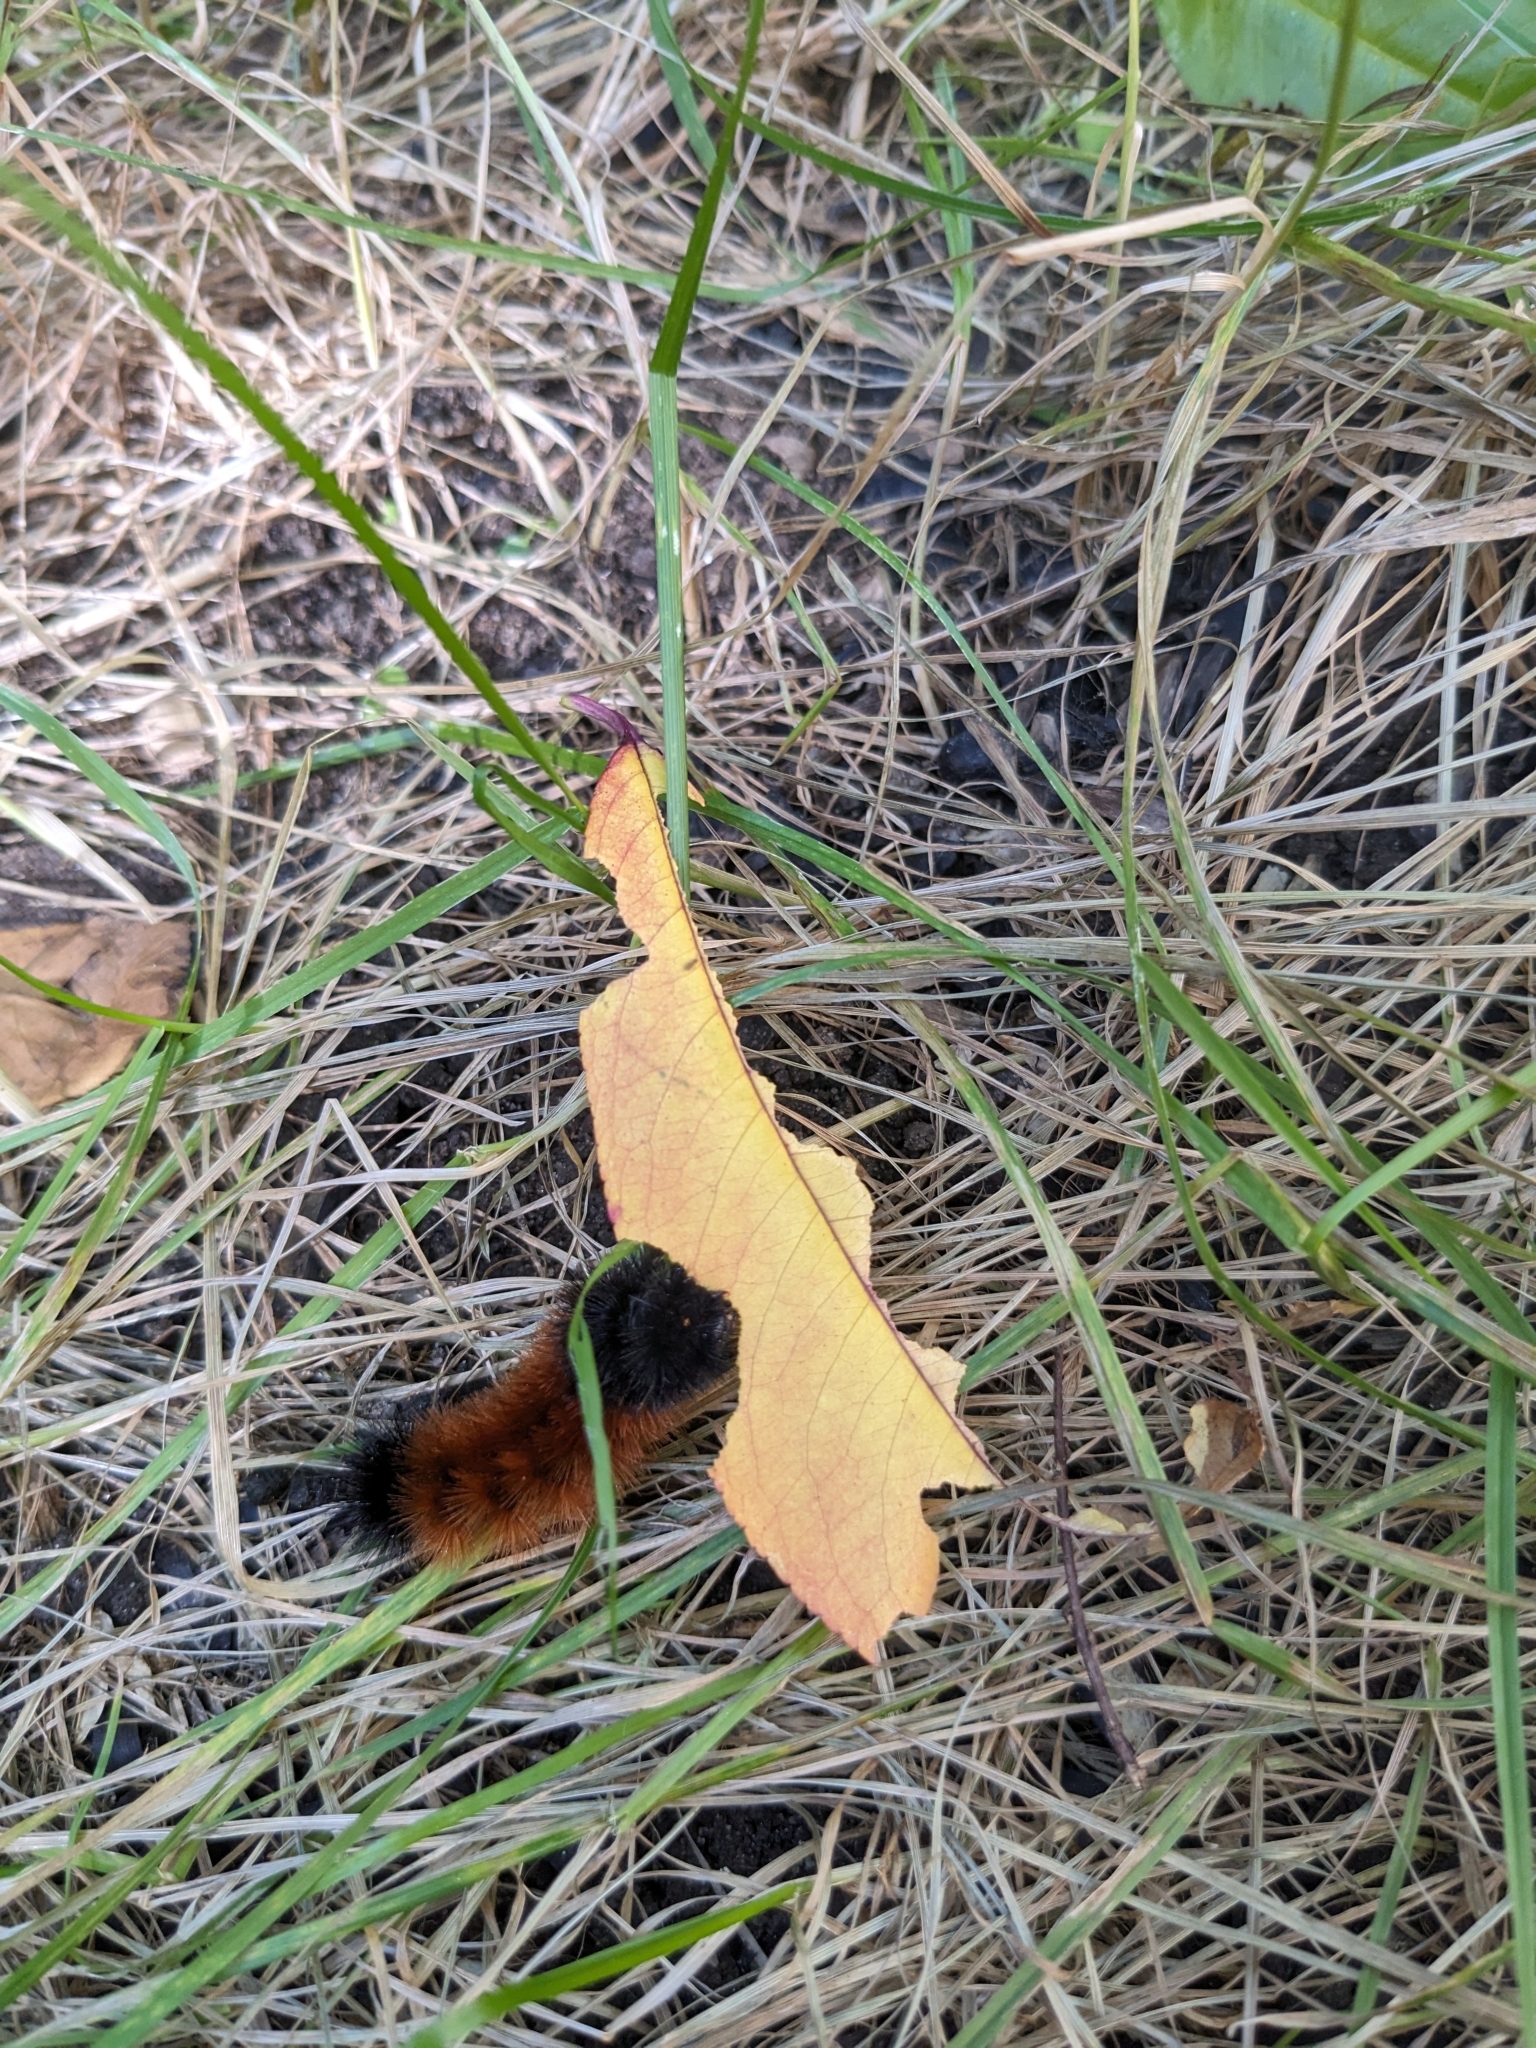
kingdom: Animalia
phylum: Arthropoda
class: Insecta
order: Lepidoptera
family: Erebidae
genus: Pyrrharctia
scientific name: Pyrrharctia isabella
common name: Isabella tiger moth
